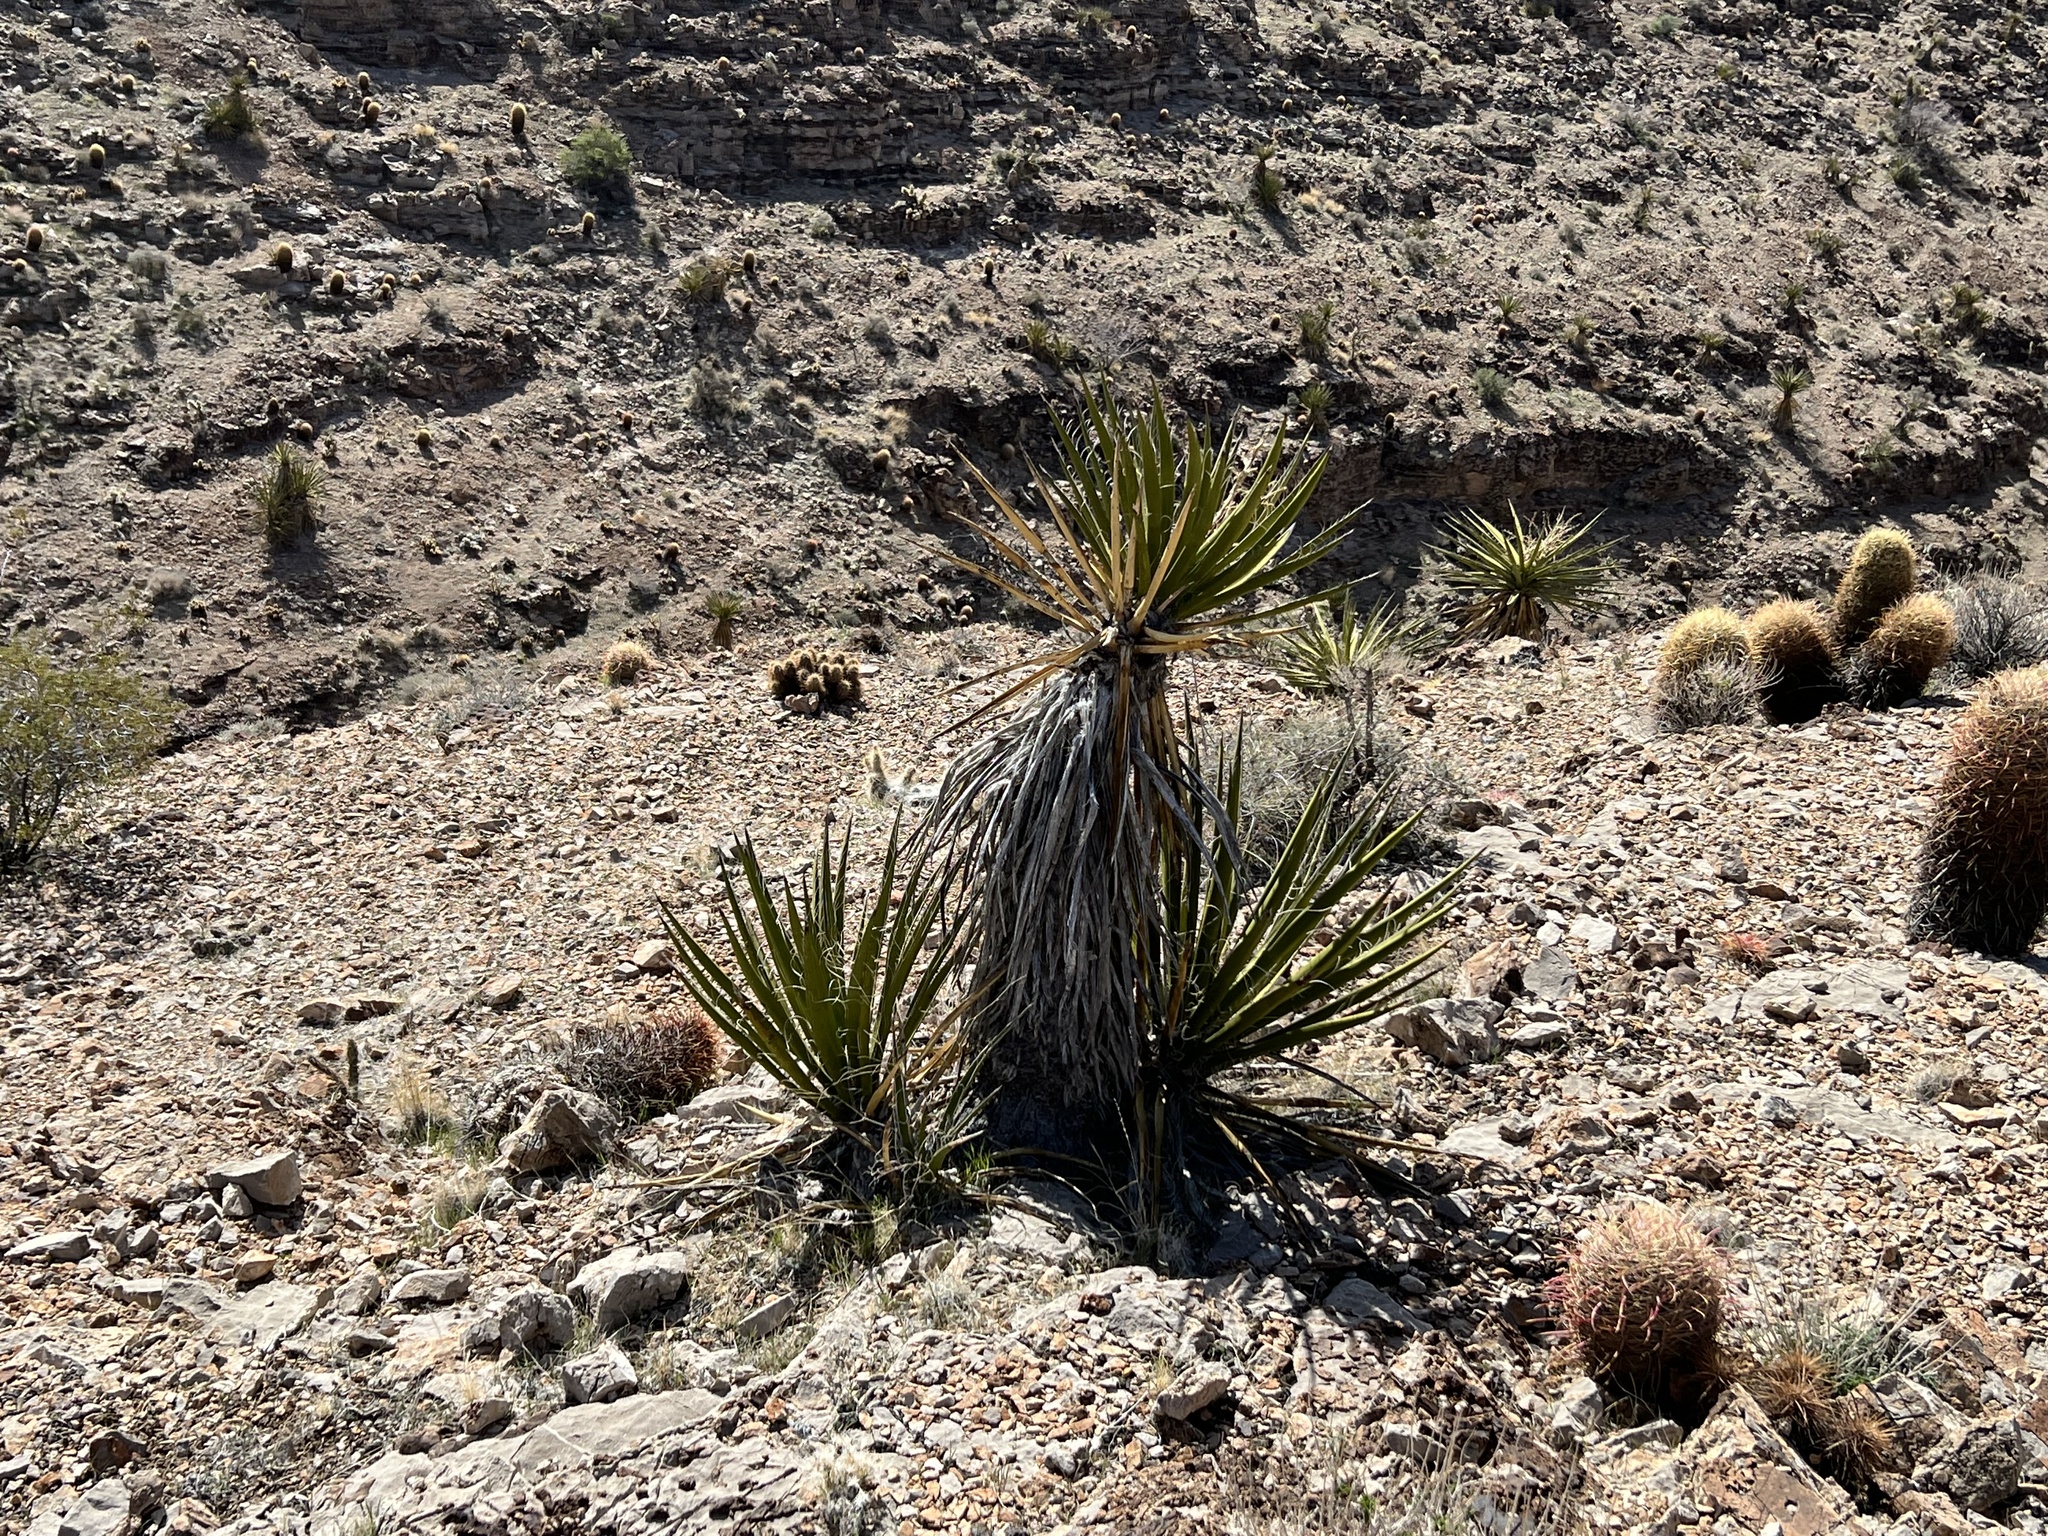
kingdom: Plantae
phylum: Tracheophyta
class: Liliopsida
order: Asparagales
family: Asparagaceae
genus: Yucca
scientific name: Yucca schidigera
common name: Mojave yucca
